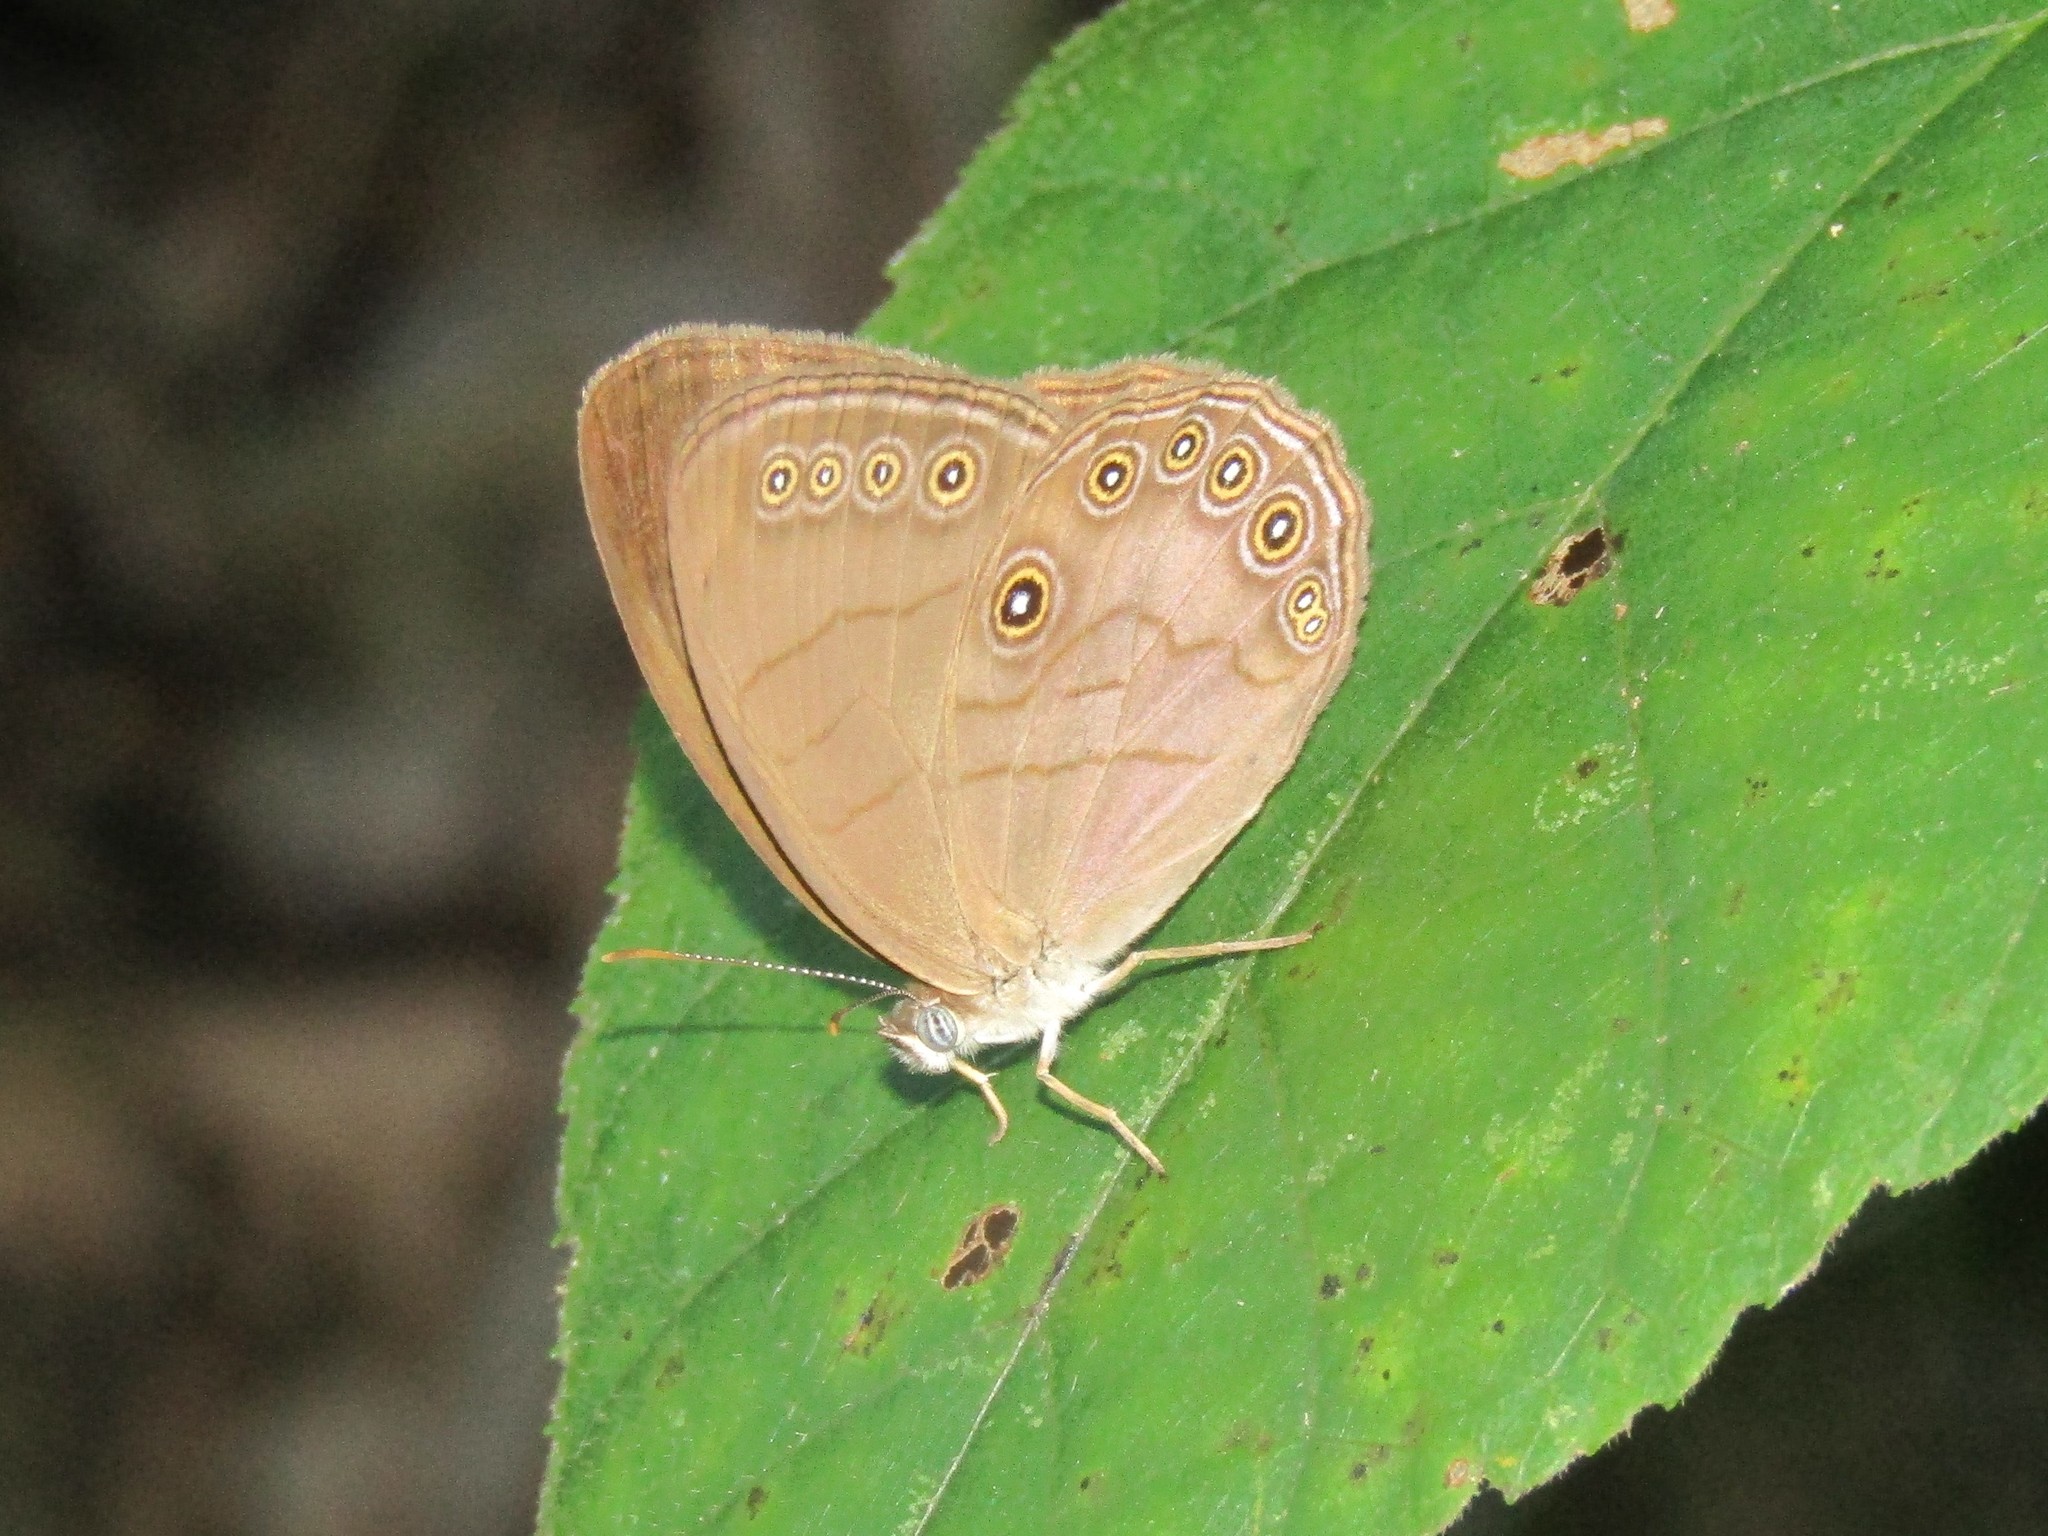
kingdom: Animalia
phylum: Arthropoda
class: Insecta
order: Lepidoptera
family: Nymphalidae
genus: Lethe
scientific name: Lethe eurydice
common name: Eyed brown
